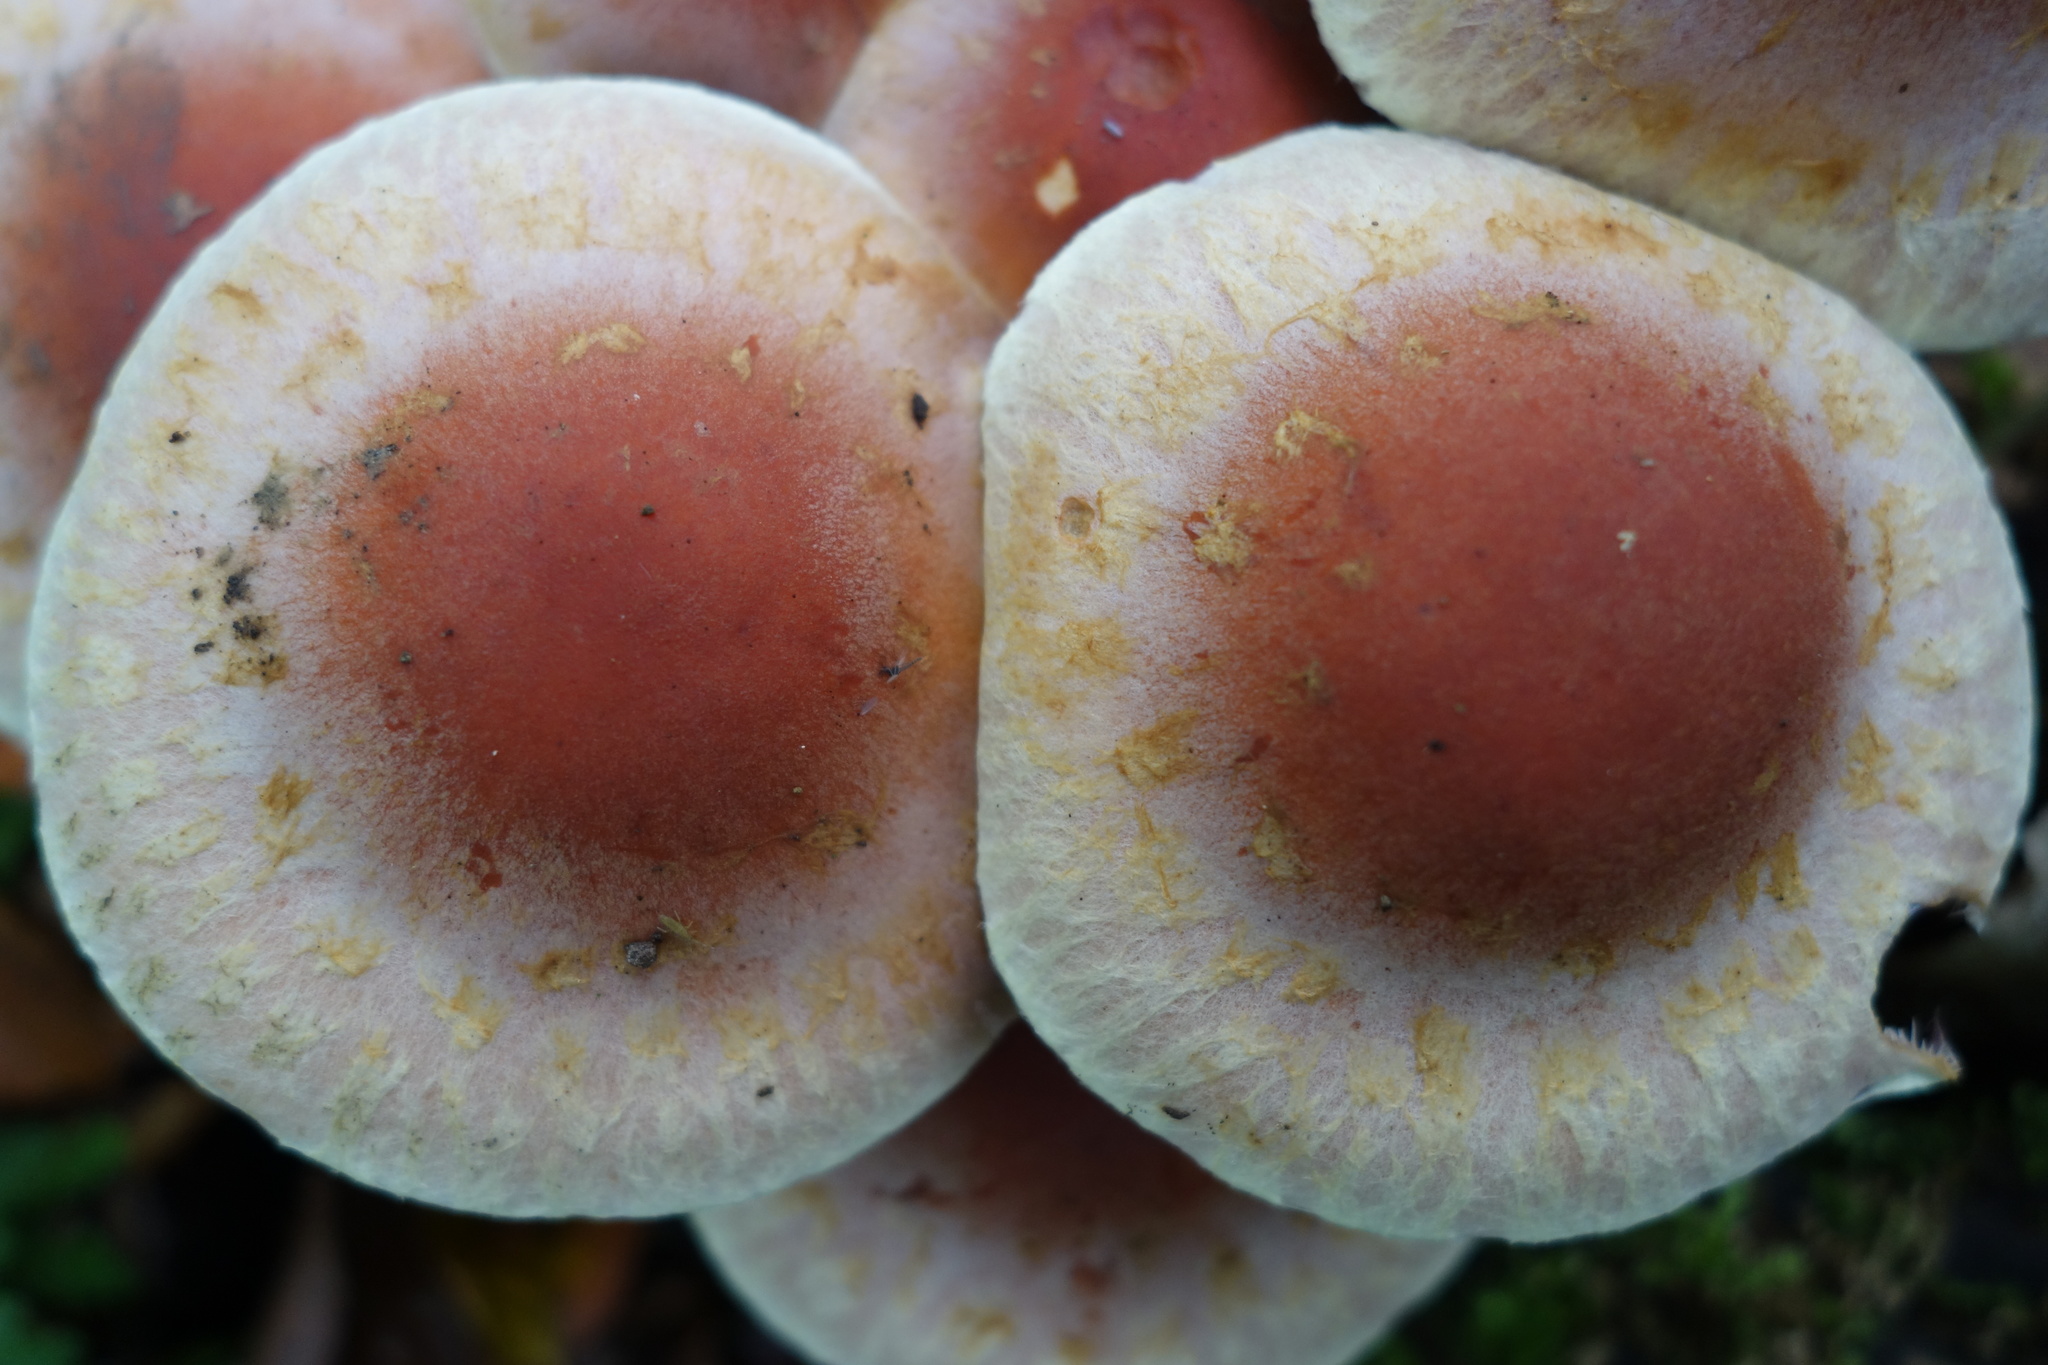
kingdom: Fungi
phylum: Basidiomycota
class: Agaricomycetes
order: Agaricales
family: Strophariaceae
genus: Hypholoma
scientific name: Hypholoma lateritium
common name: Brick caps
